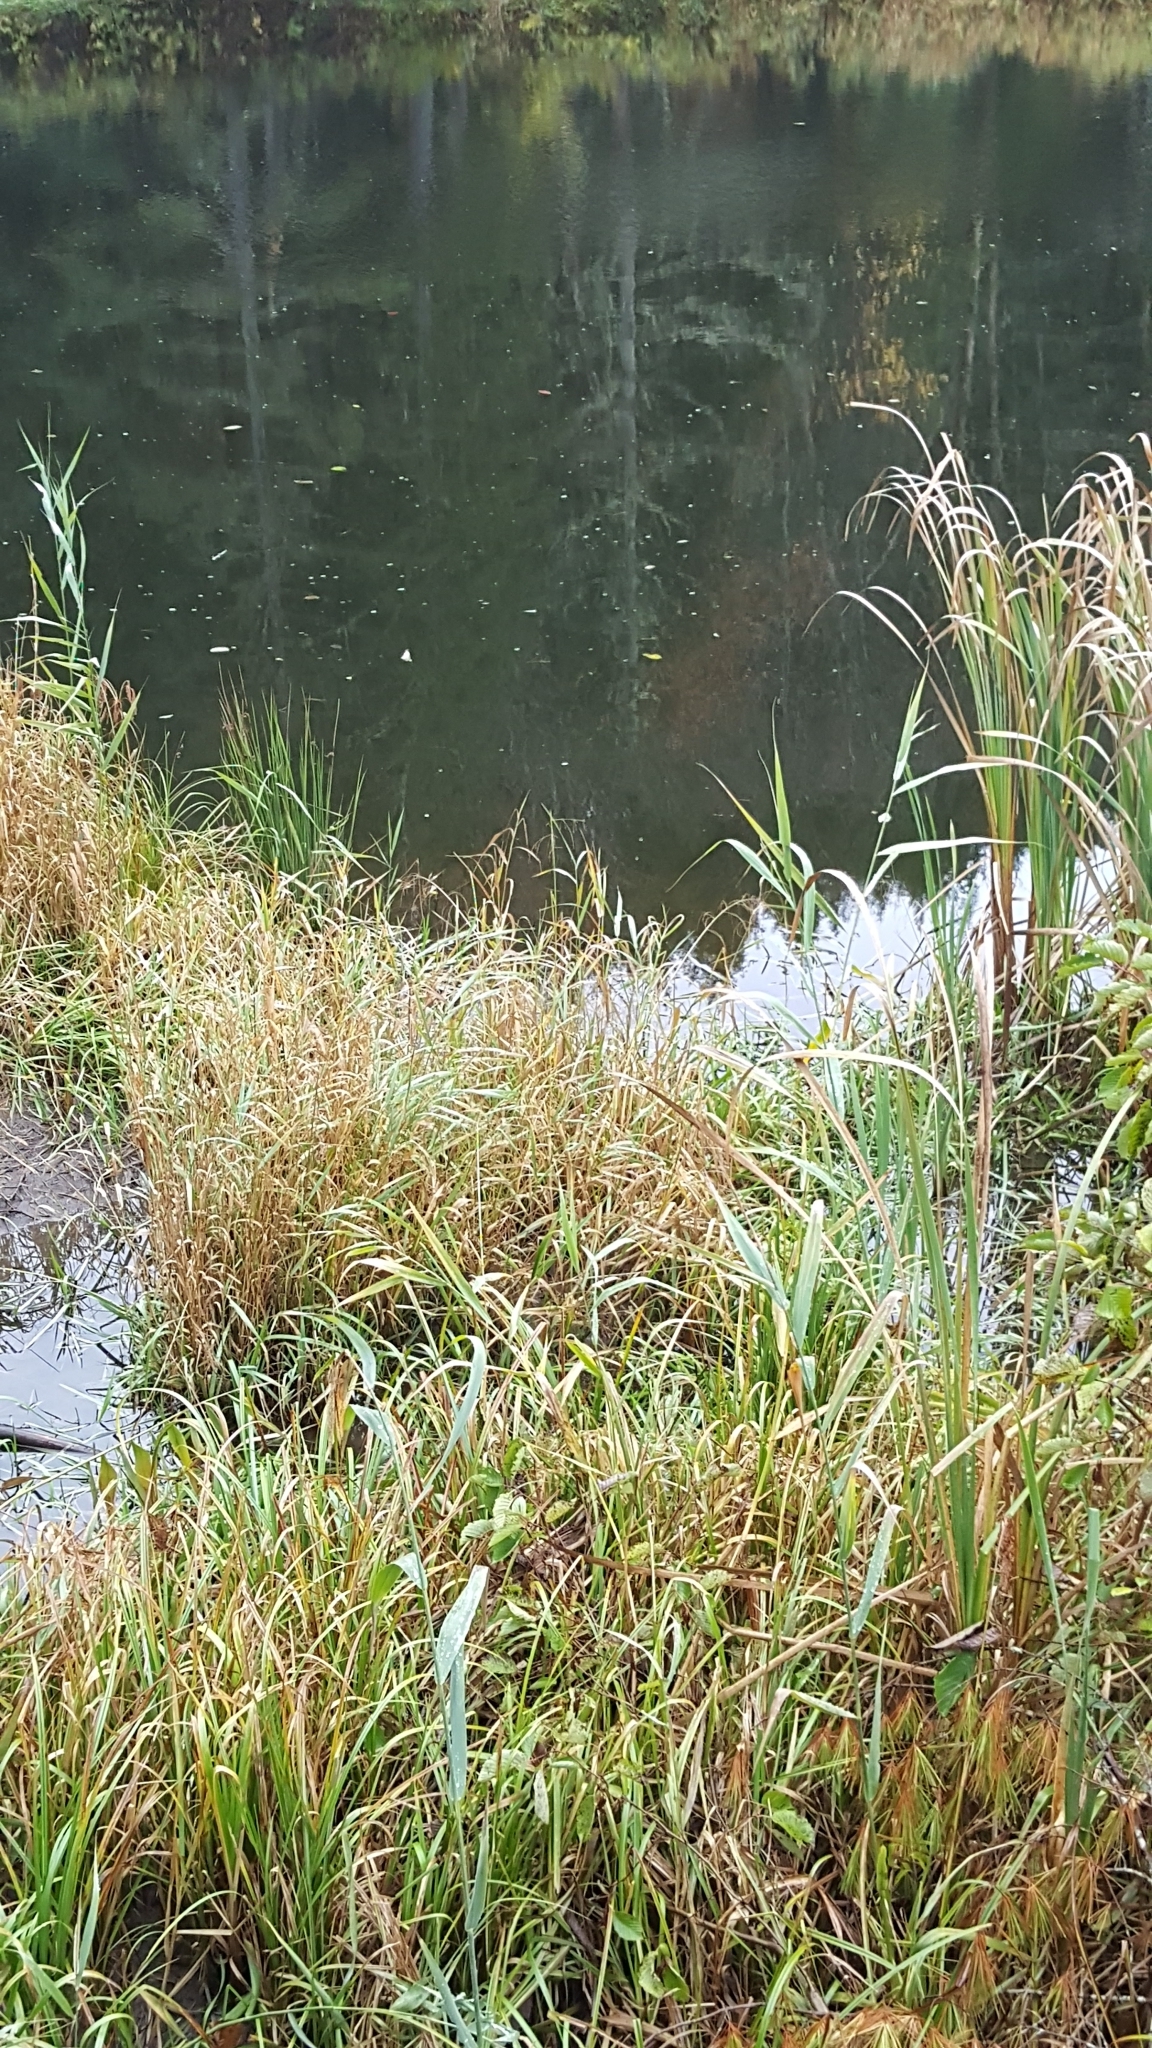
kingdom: Plantae
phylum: Tracheophyta
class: Liliopsida
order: Poales
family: Poaceae
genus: Phragmites
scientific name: Phragmites australis
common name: Common reed
